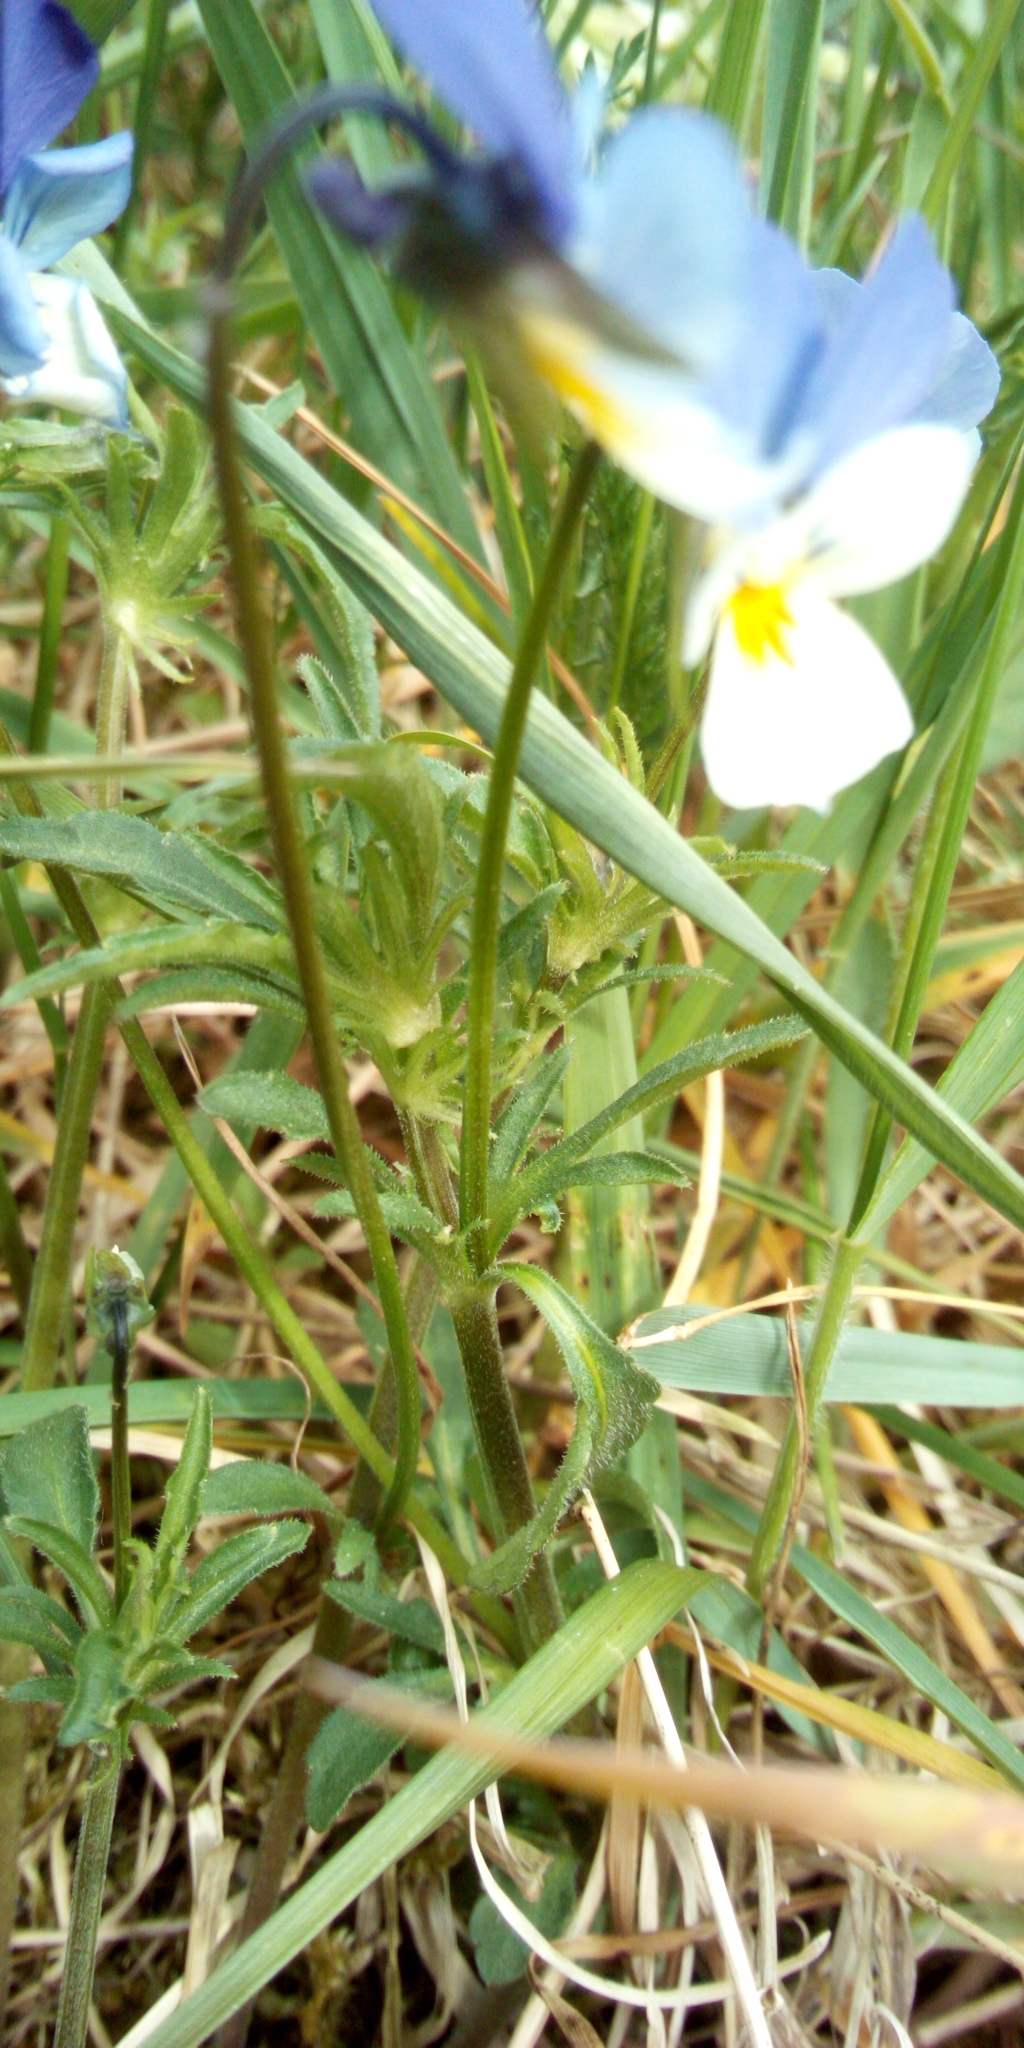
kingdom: Plantae
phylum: Tracheophyta
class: Magnoliopsida
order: Malpighiales
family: Violaceae
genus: Viola
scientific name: Viola tricolor
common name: Pansy
